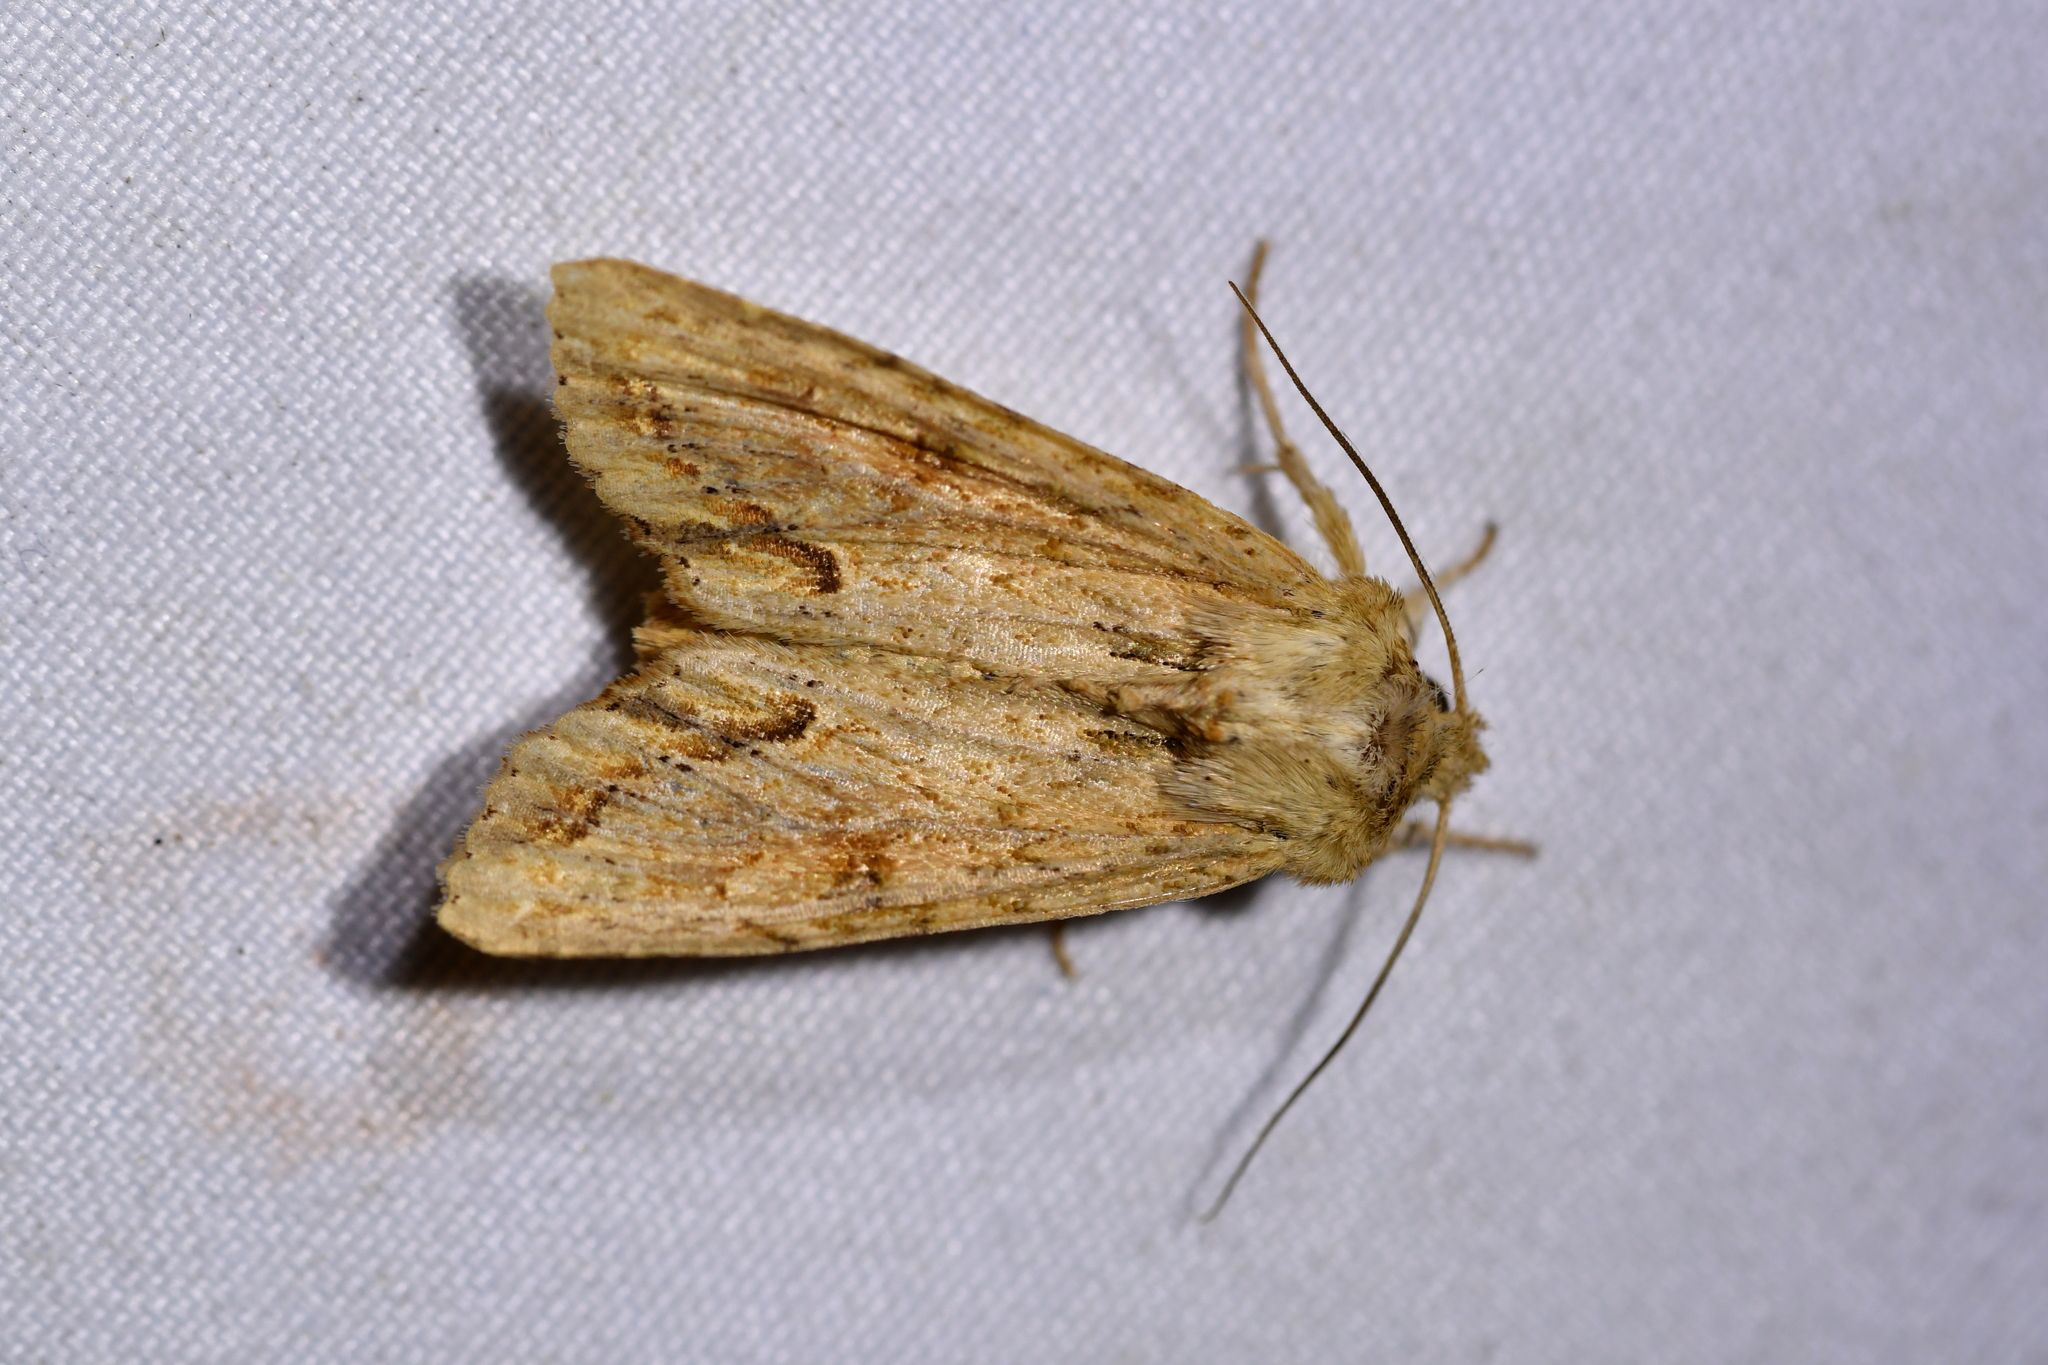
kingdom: Animalia
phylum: Arthropoda
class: Insecta
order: Lepidoptera
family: Noctuidae
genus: Ichneutica
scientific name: Ichneutica mollis
